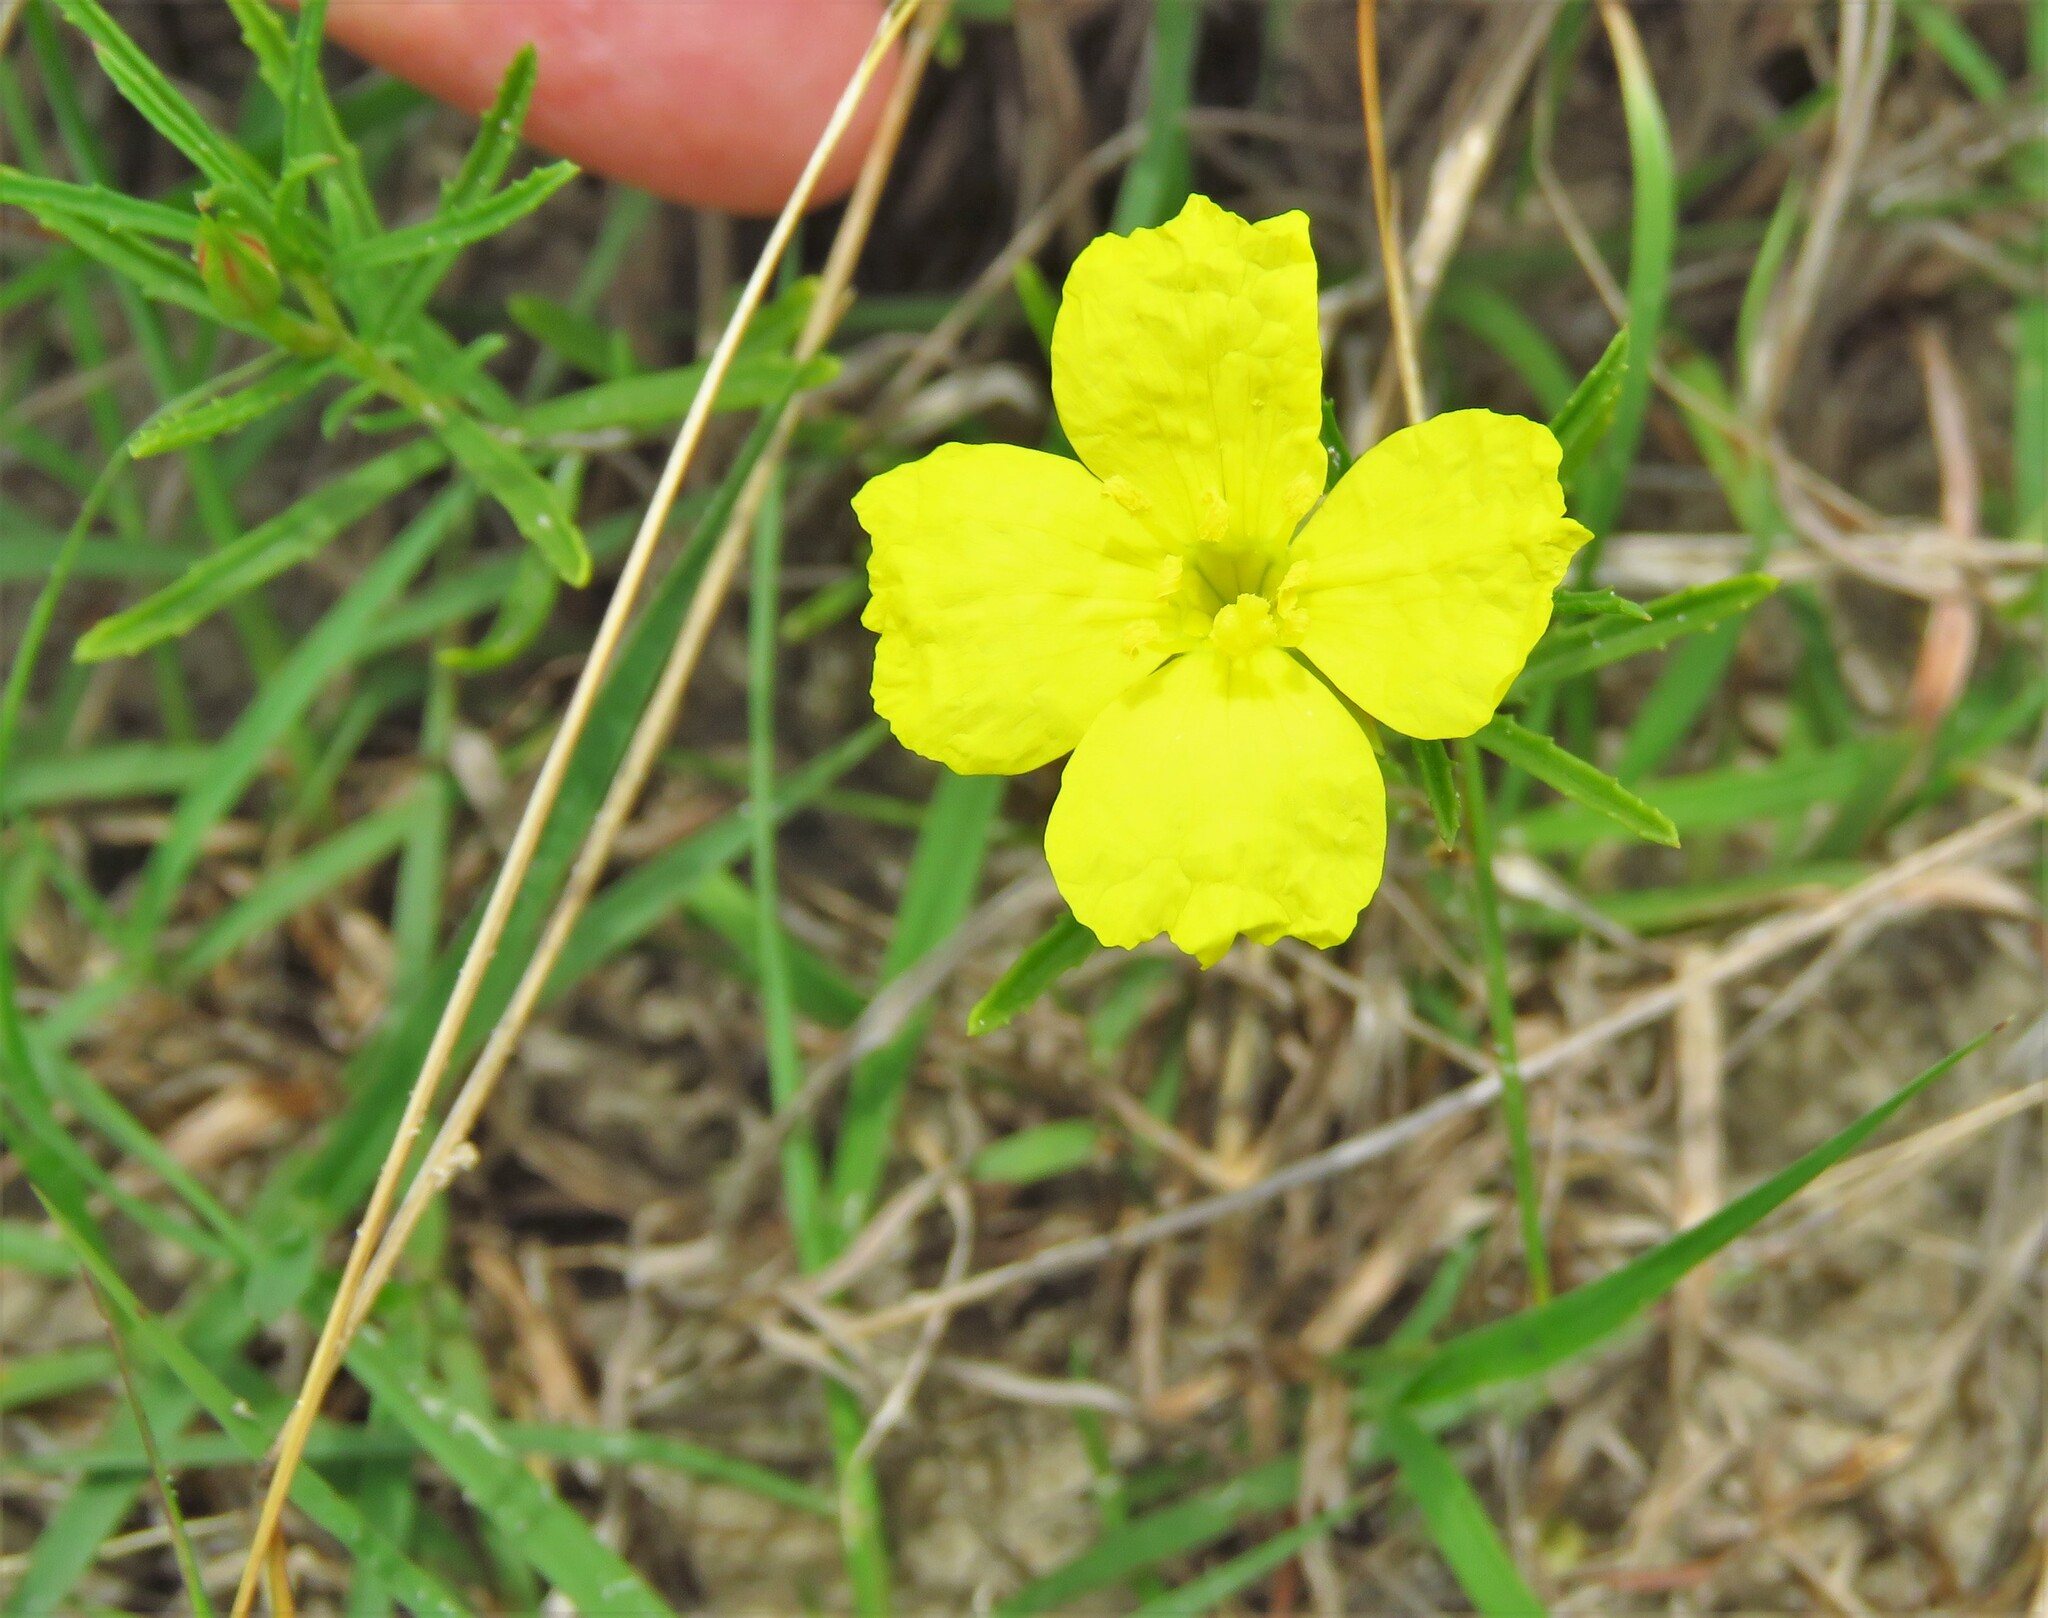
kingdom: Plantae
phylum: Tracheophyta
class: Magnoliopsida
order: Myrtales
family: Onagraceae
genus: Oenothera
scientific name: Oenothera
